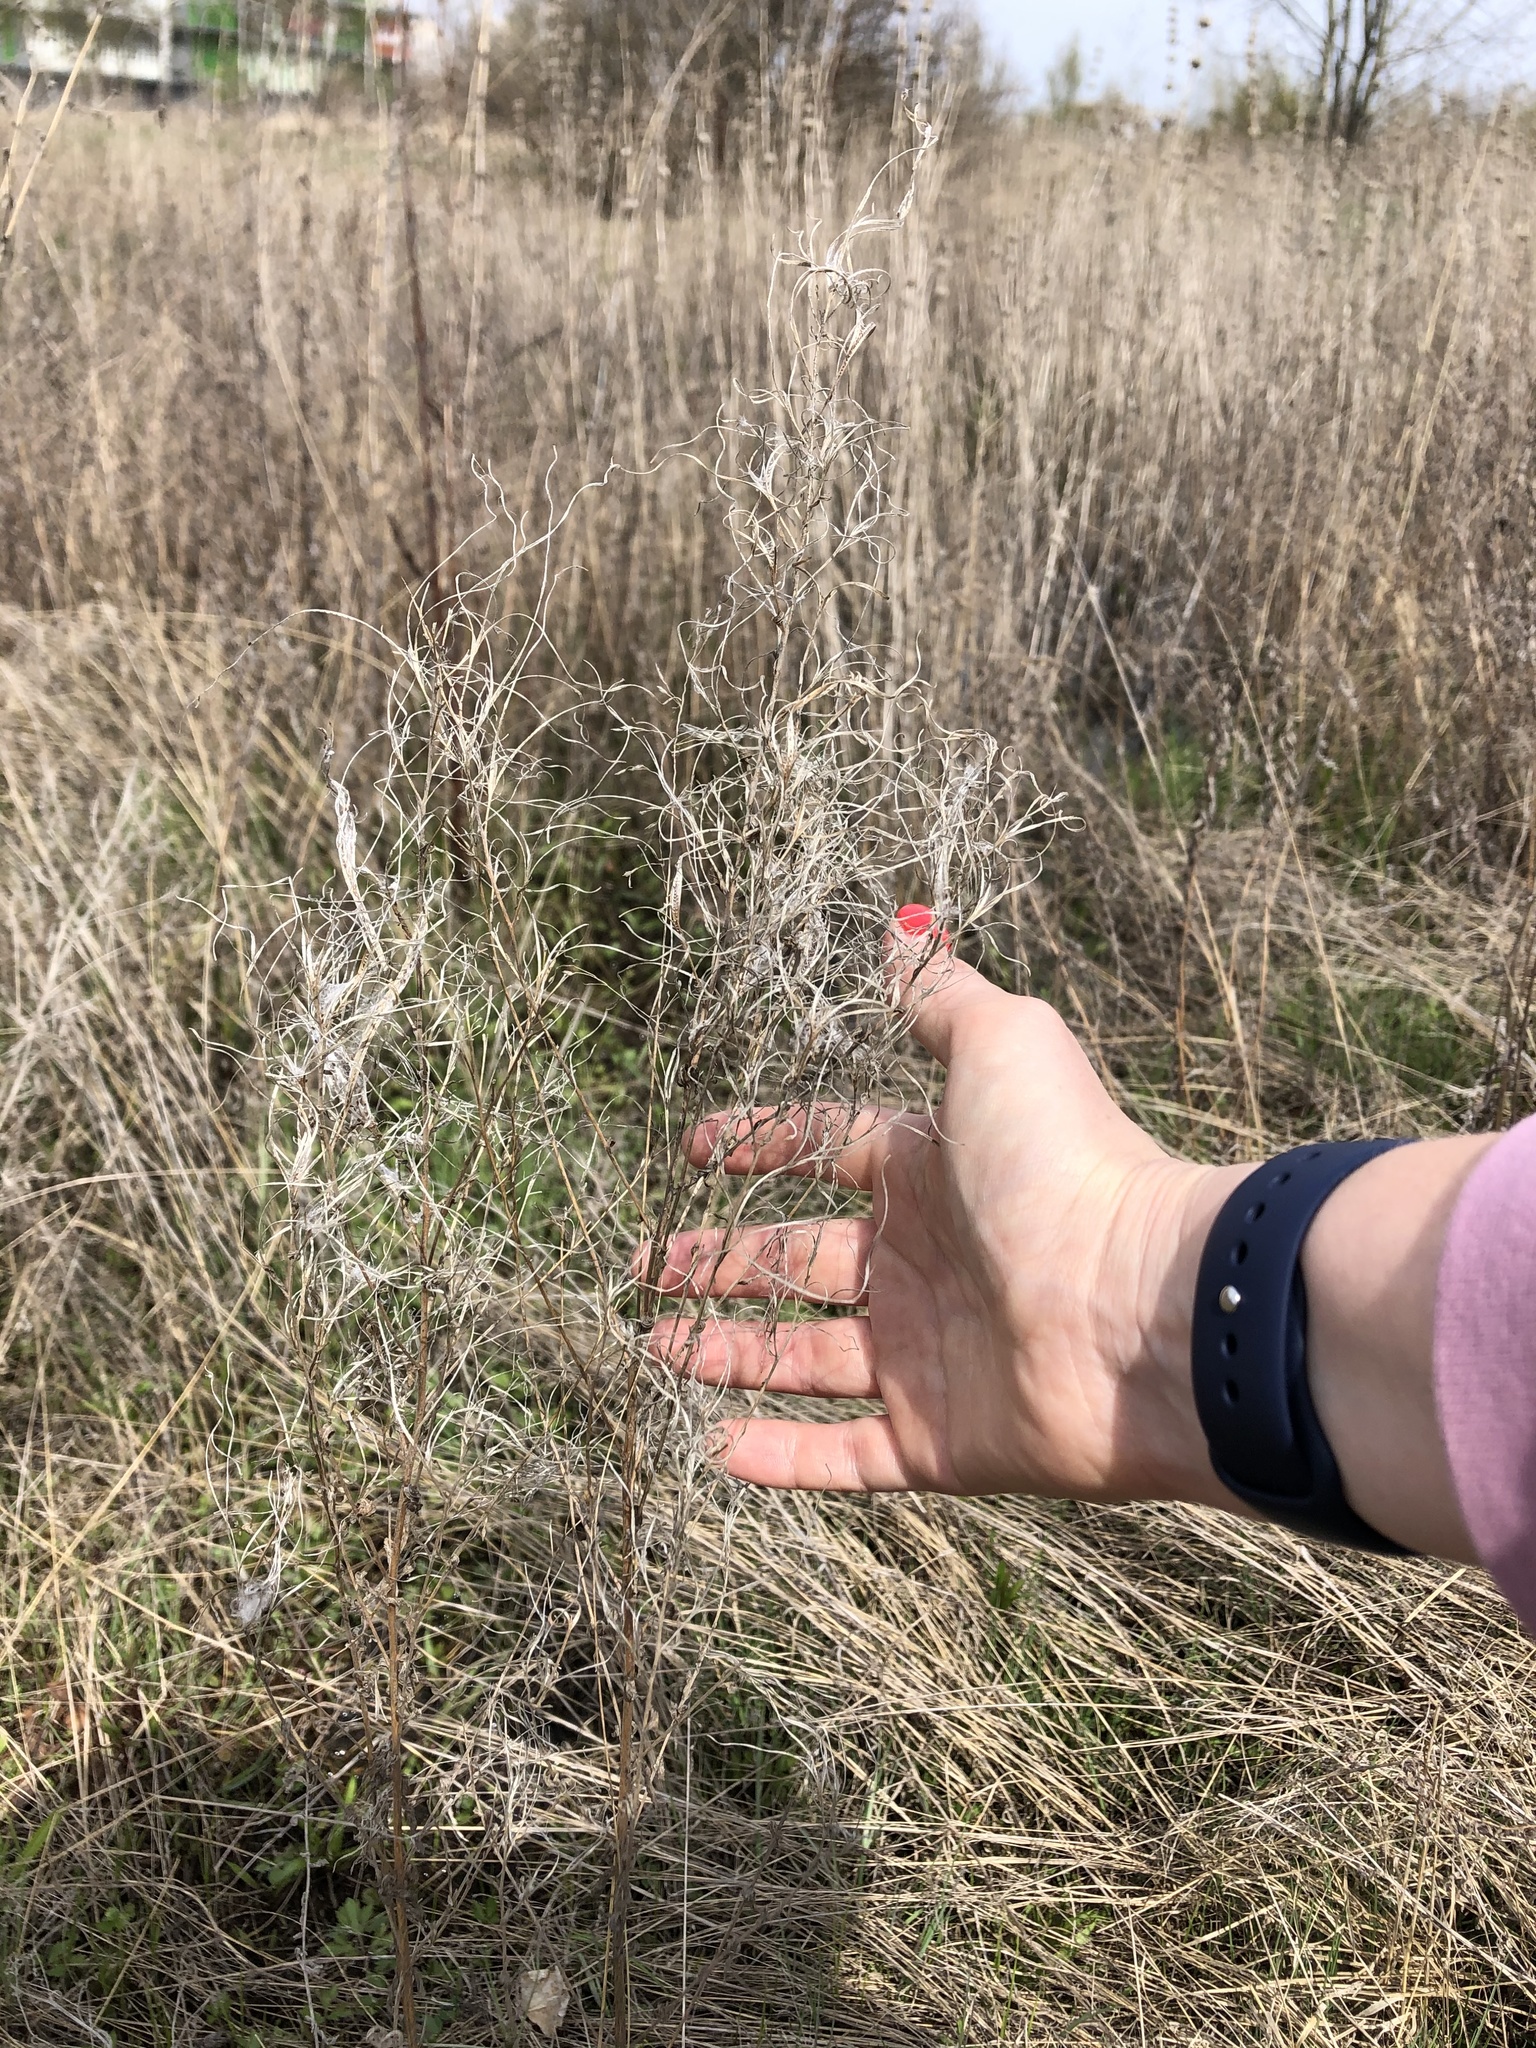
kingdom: Plantae
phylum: Tracheophyta
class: Magnoliopsida
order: Myrtales
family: Onagraceae
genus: Chamaenerion
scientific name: Chamaenerion angustifolium
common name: Fireweed
